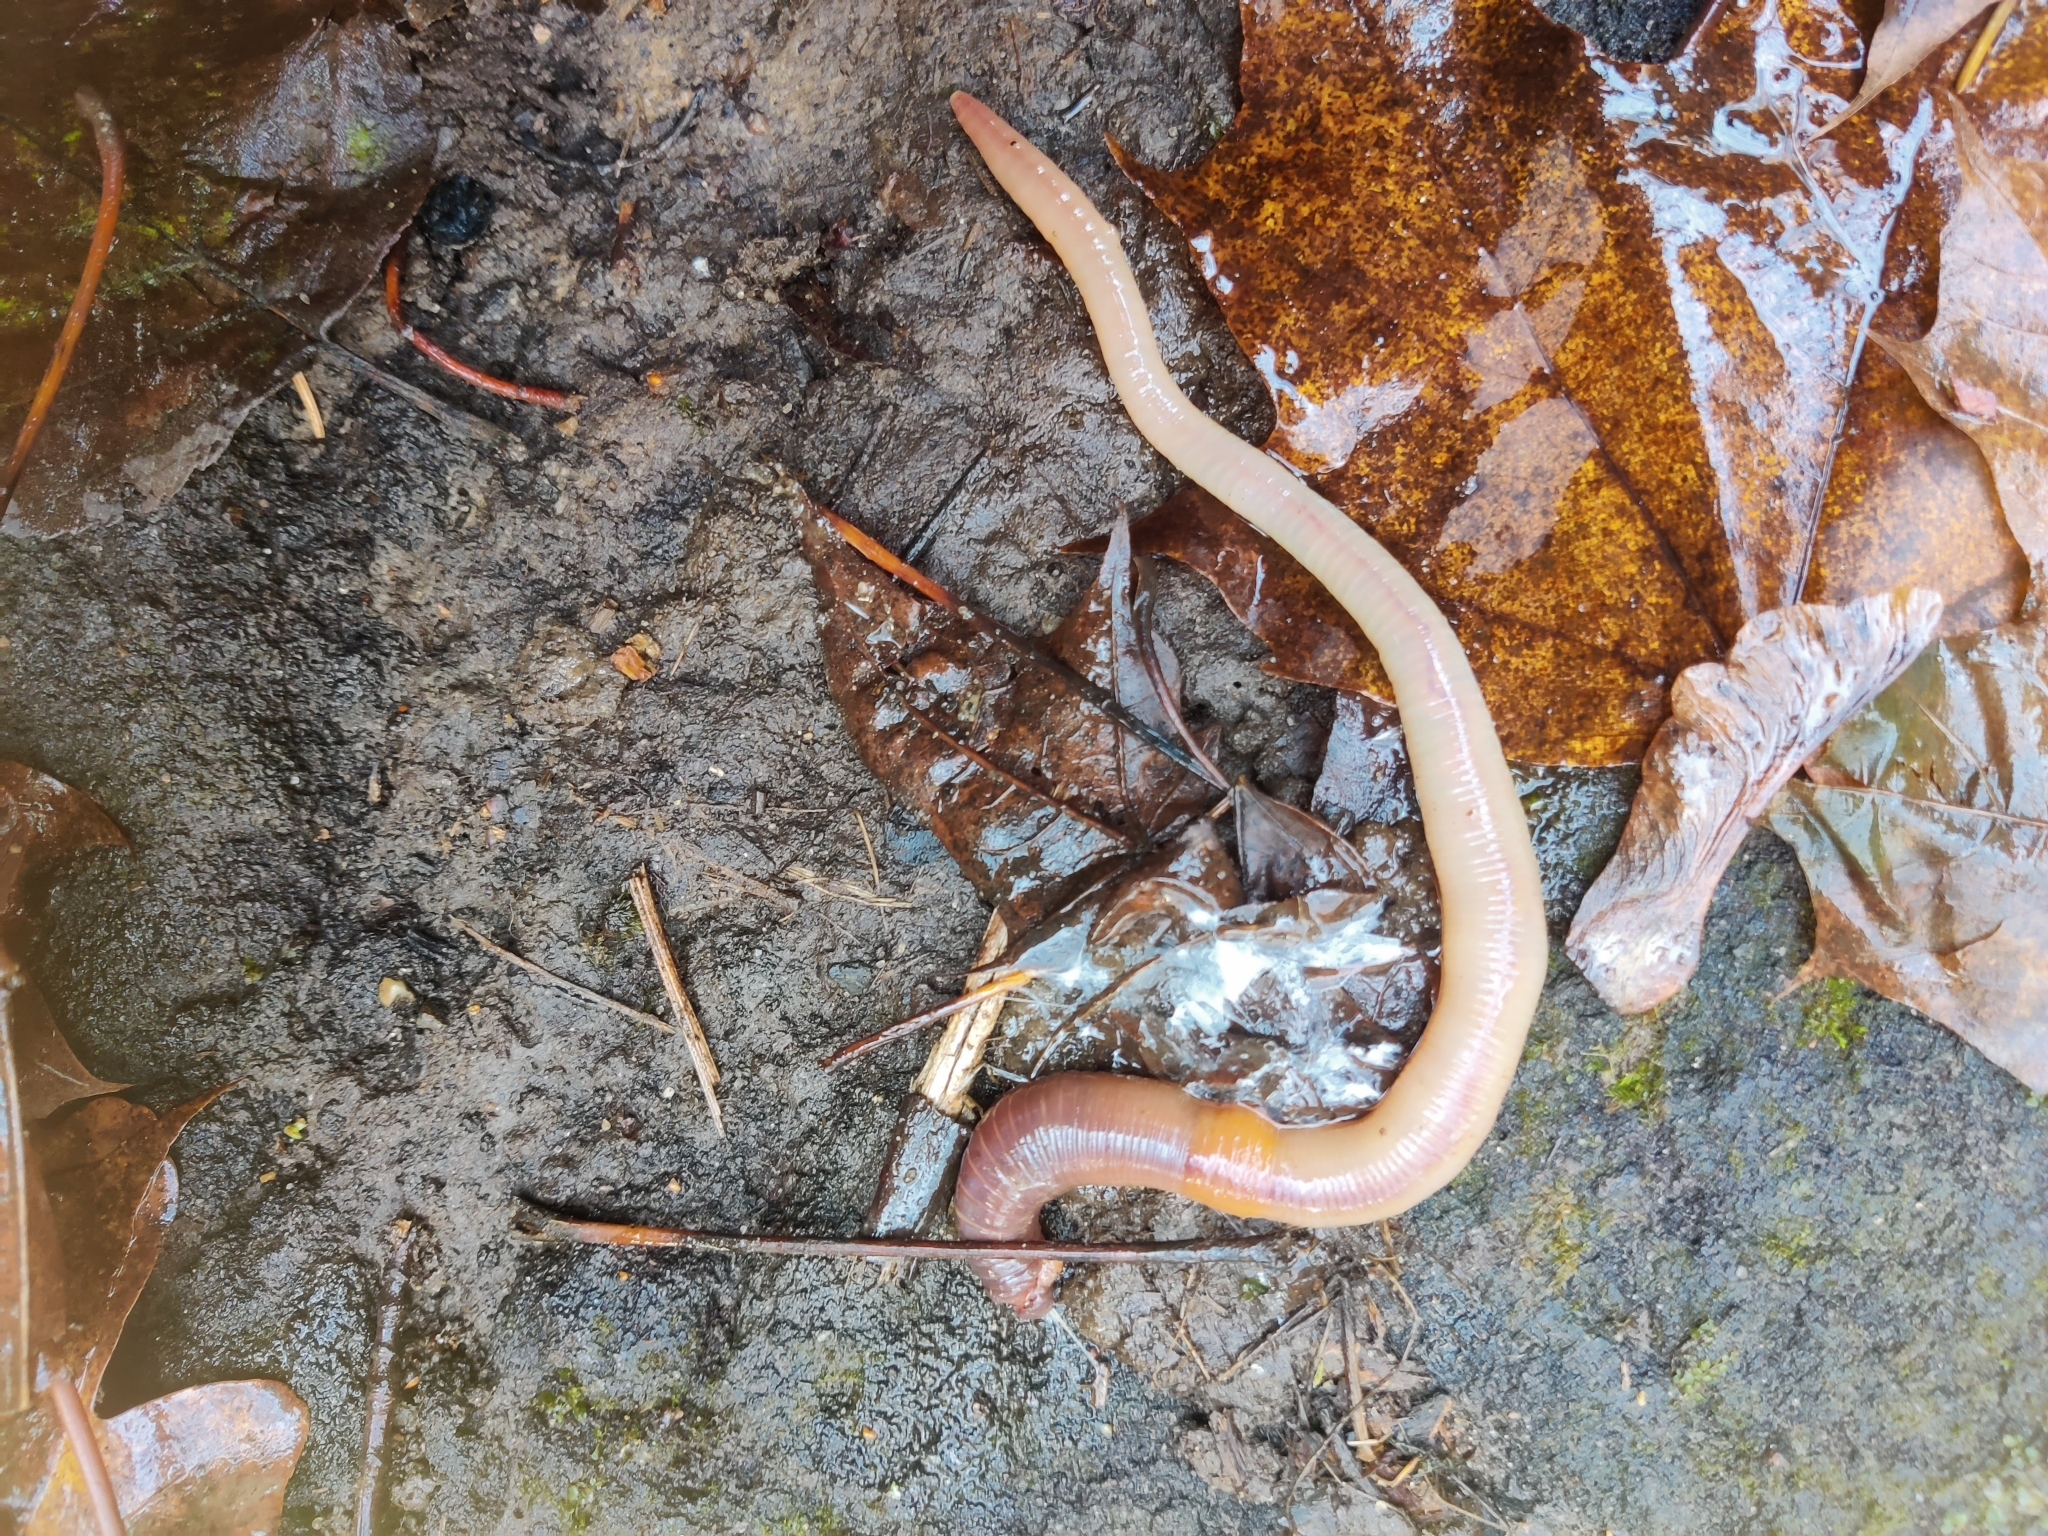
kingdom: Animalia
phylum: Annelida
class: Clitellata
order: Crassiclitellata
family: Lumbricidae
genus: Lumbricus
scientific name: Lumbricus terrestris
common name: Common earthworm
